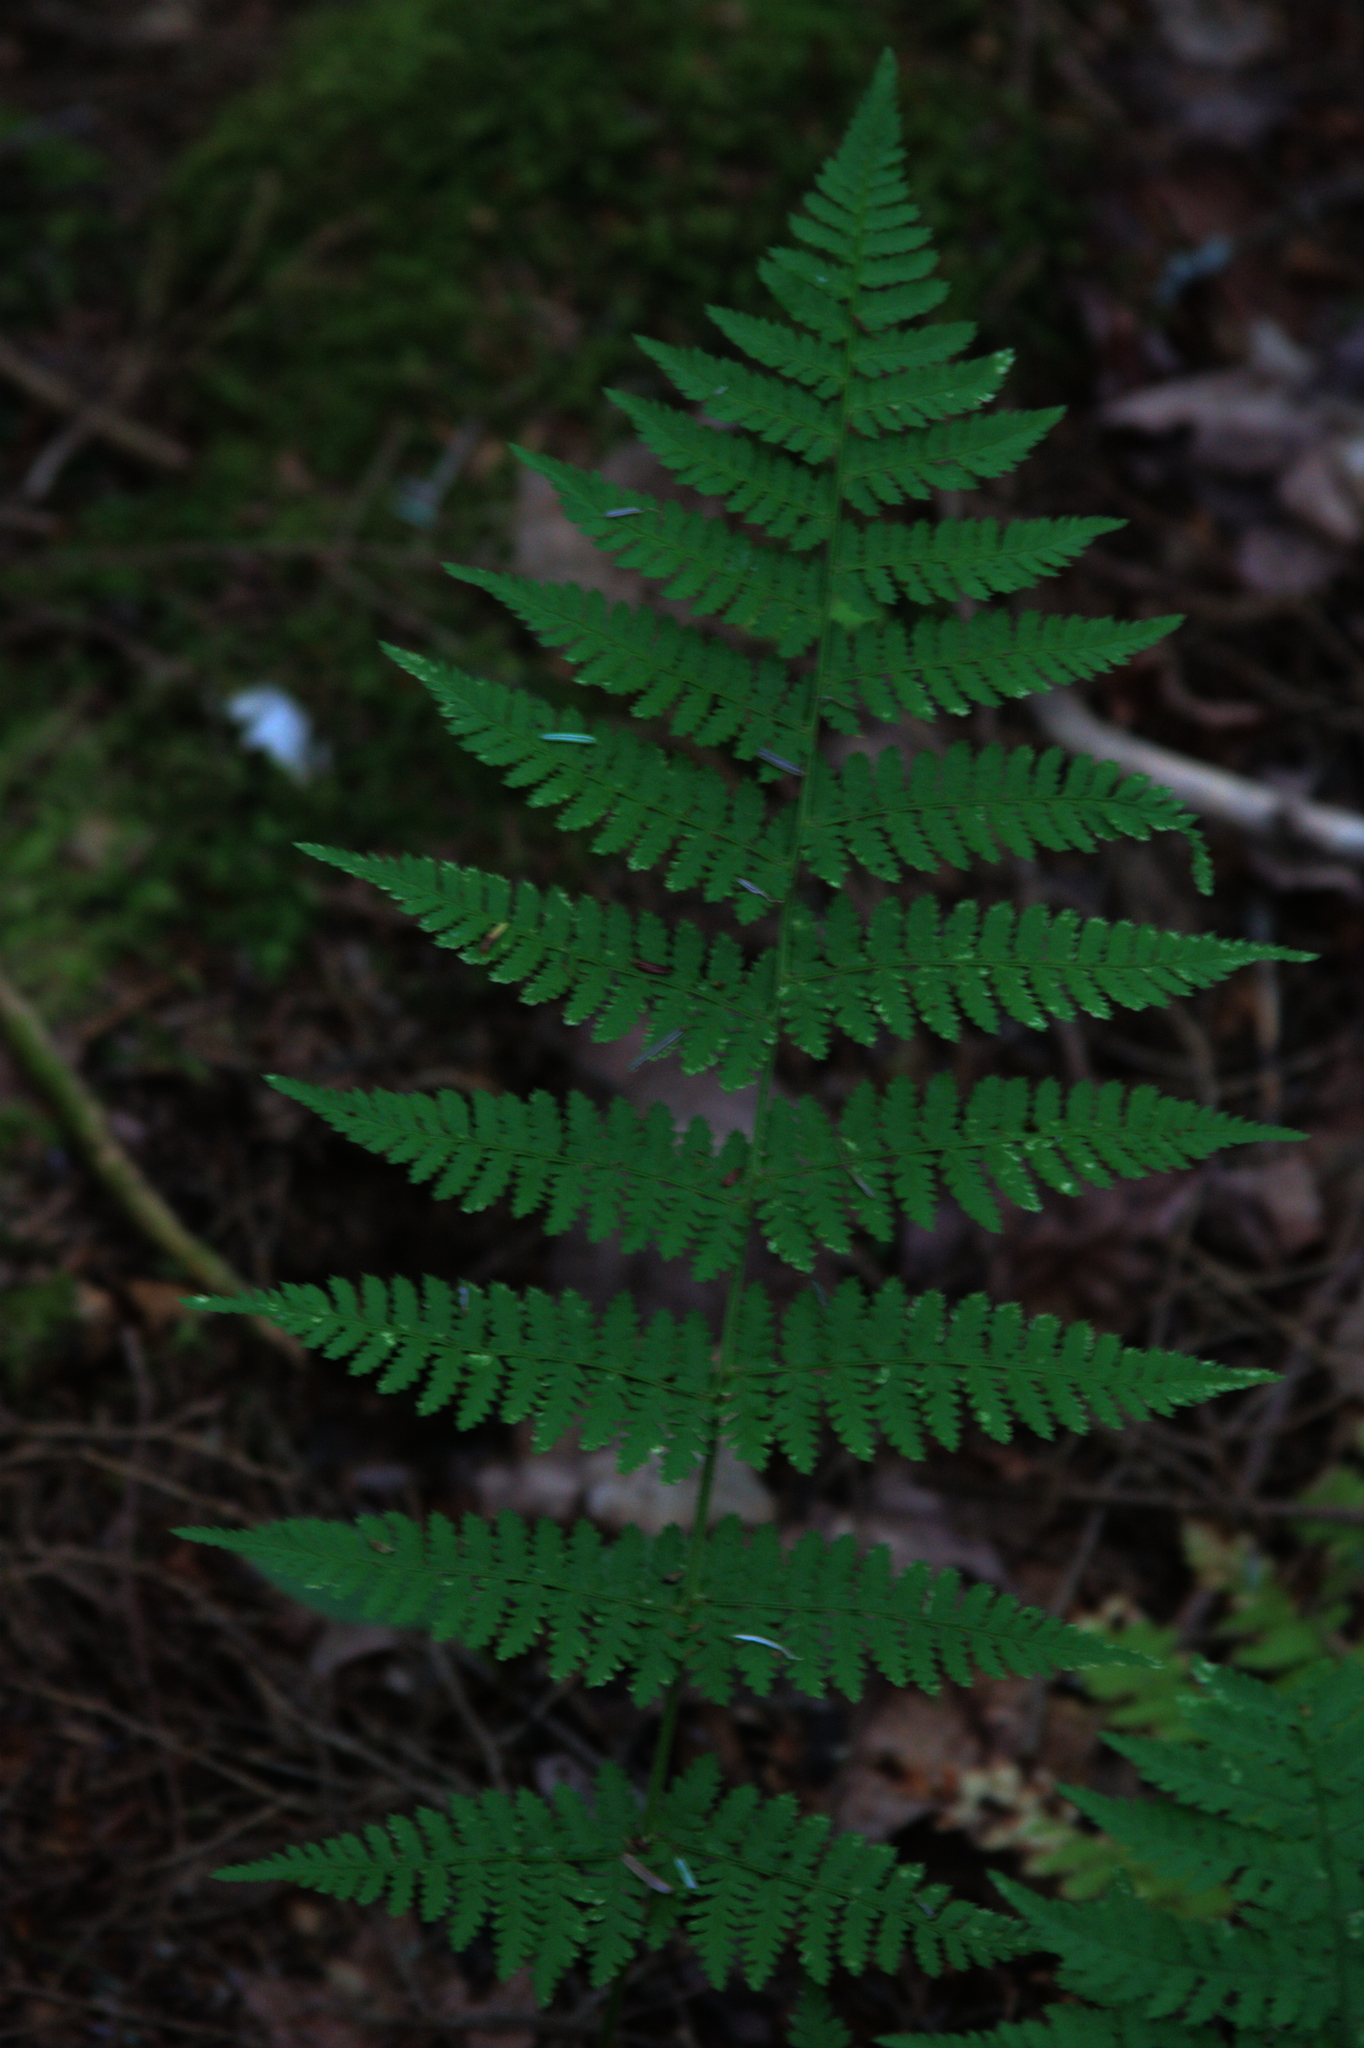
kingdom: Plantae
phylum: Tracheophyta
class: Polypodiopsida
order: Polypodiales
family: Dryopteridaceae
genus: Dryopteris
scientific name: Dryopteris intermedia
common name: Evergreen wood fern
